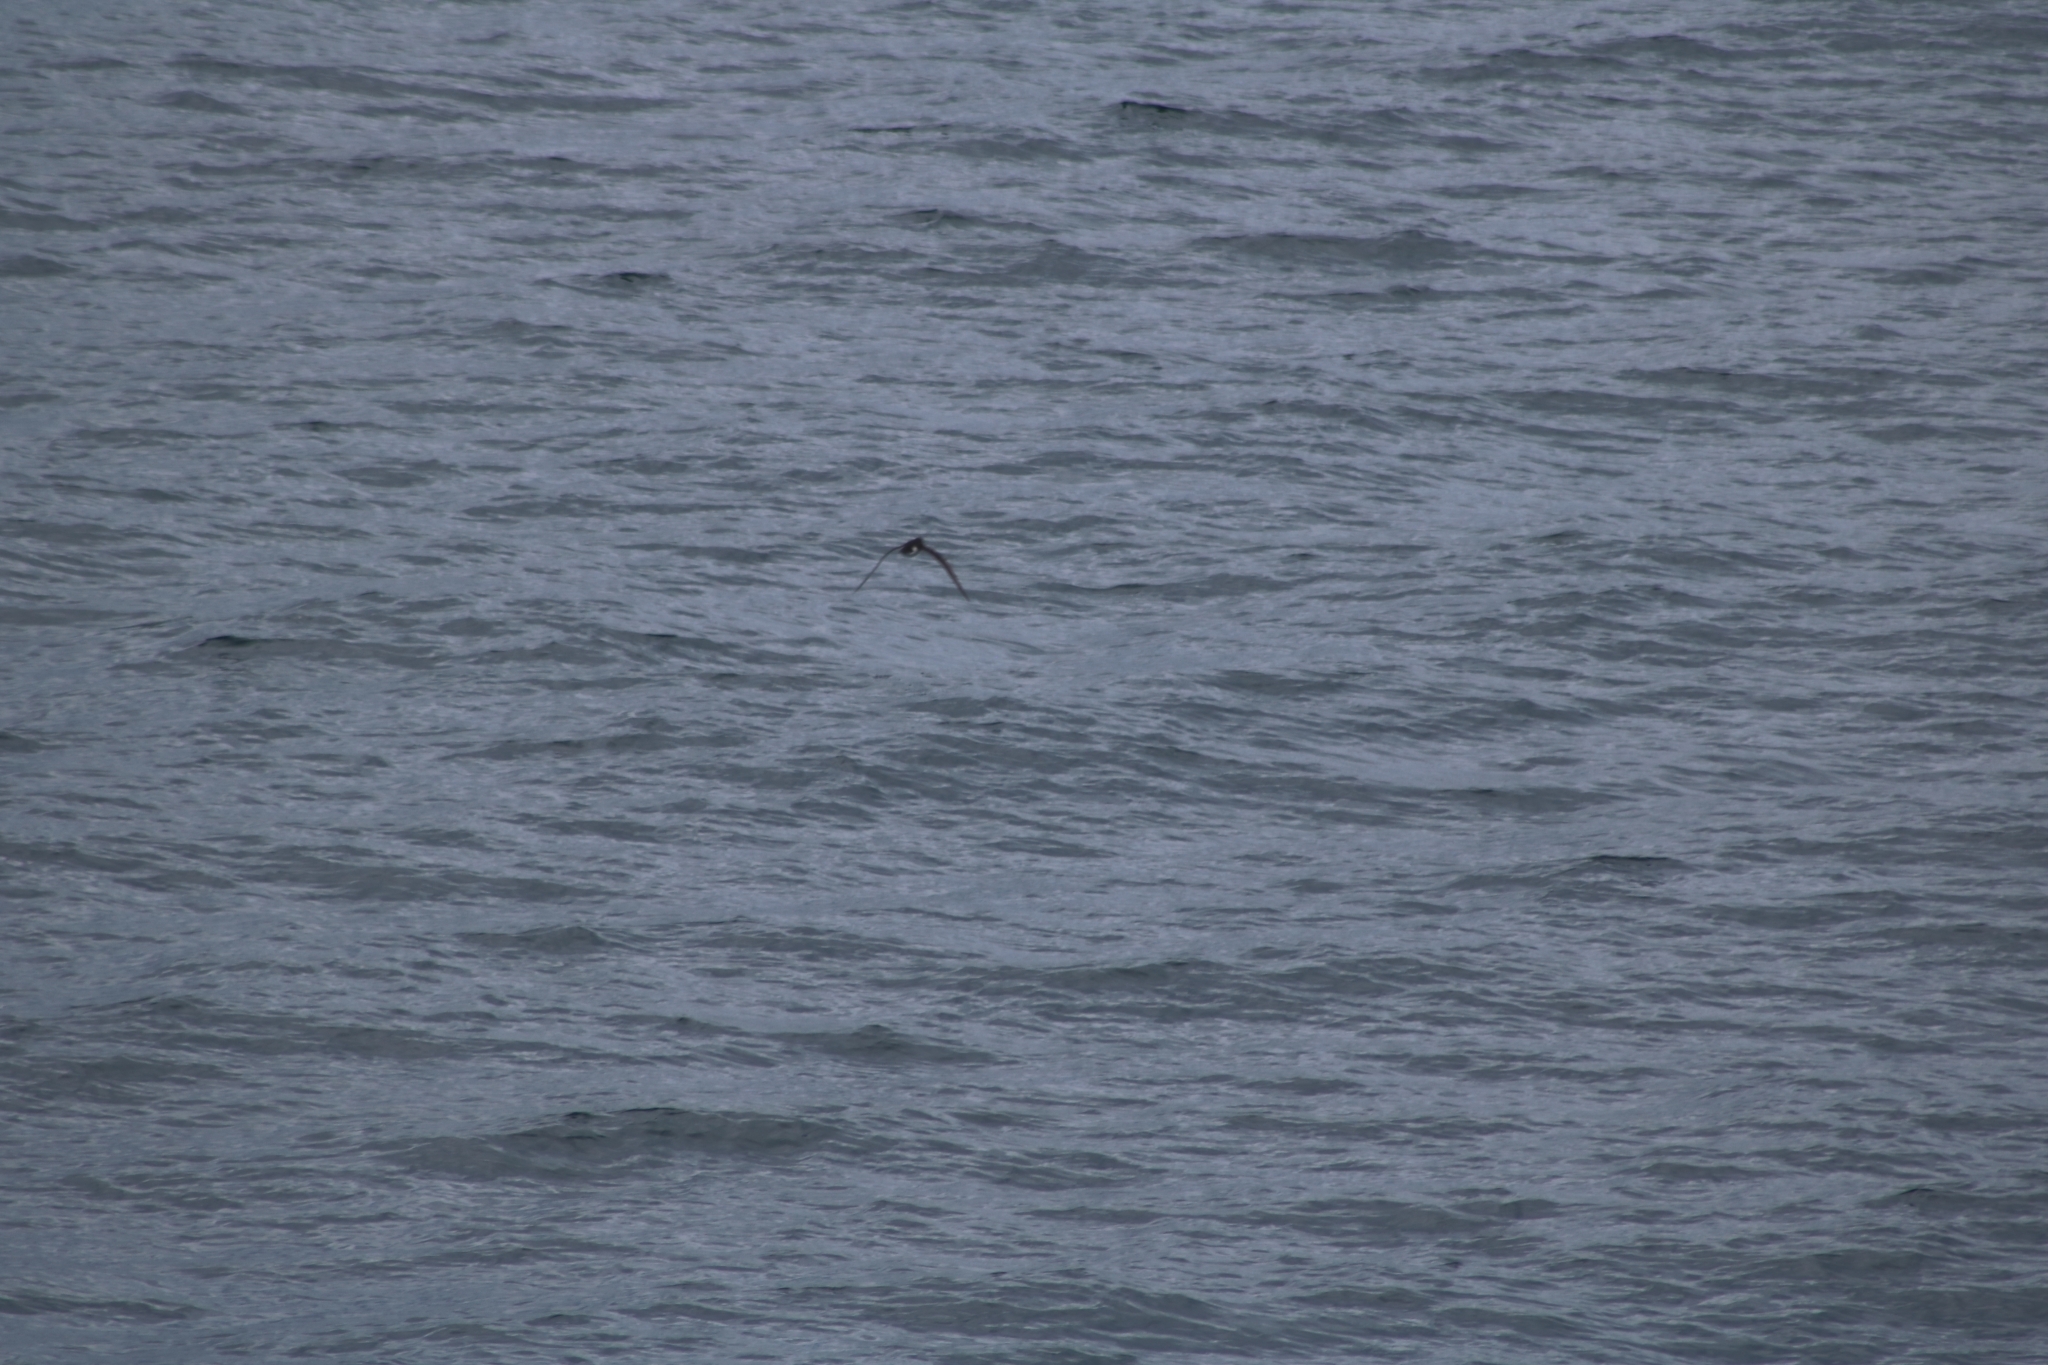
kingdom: Animalia
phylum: Chordata
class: Aves
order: Procellariiformes
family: Procellariidae
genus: Puffinus
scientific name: Puffinus puffinus
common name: Manx shearwater
